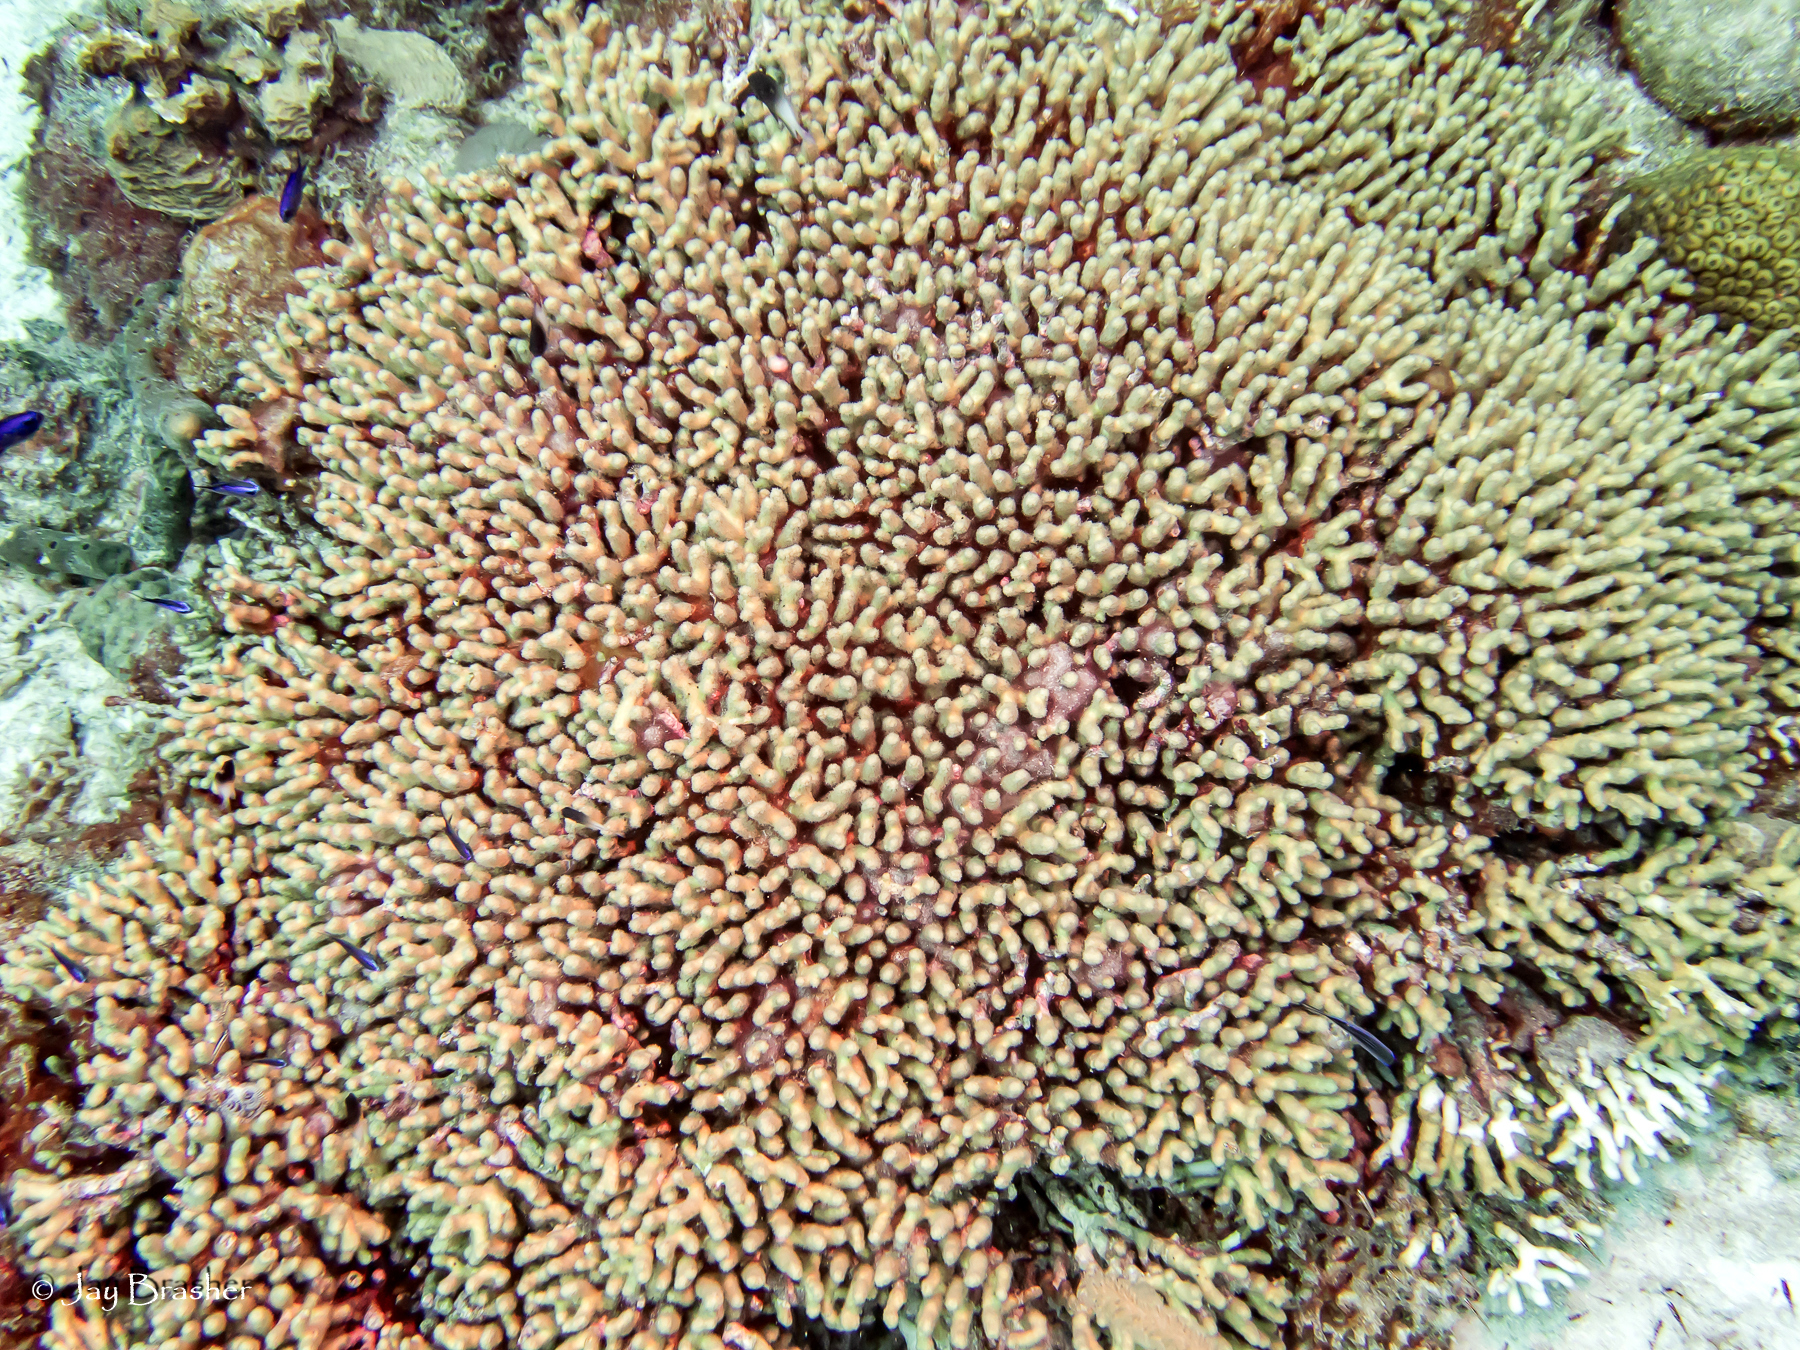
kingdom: Animalia
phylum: Cnidaria
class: Anthozoa
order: Scleractinia
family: Pocilloporidae
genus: Madracis
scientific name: Madracis auretenra
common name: Yellow pencil coral
